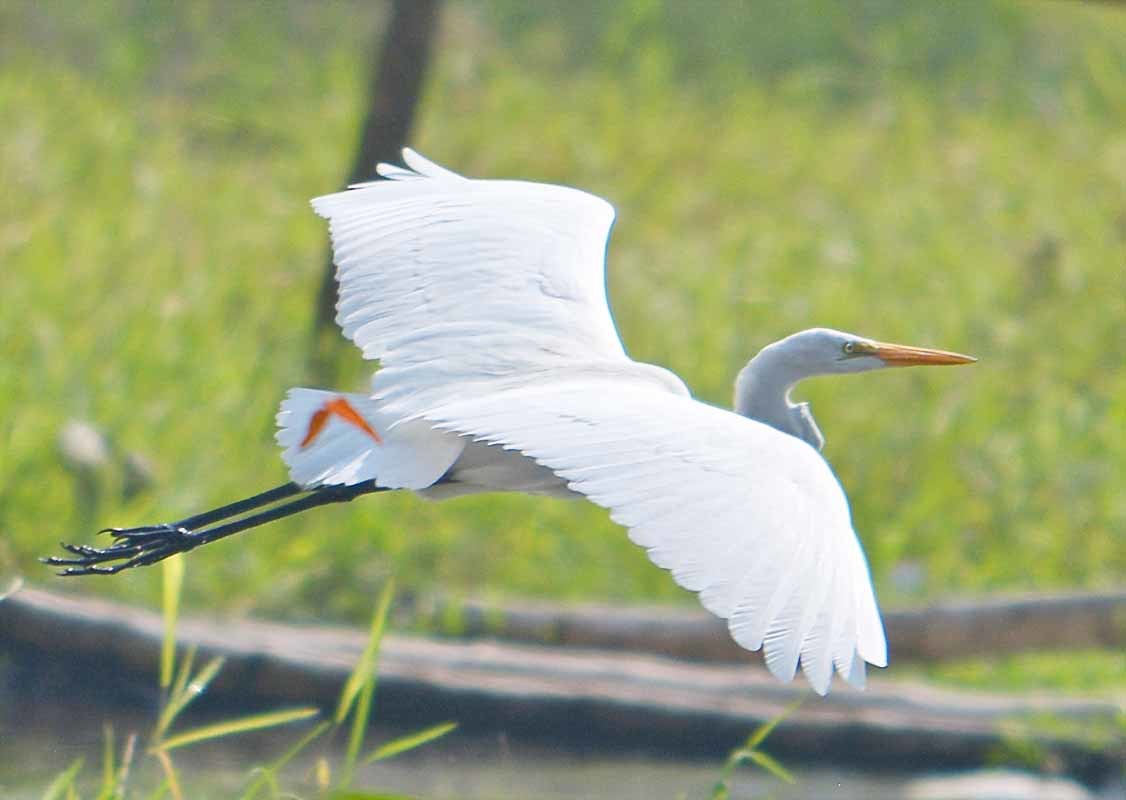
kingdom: Animalia
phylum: Chordata
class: Aves
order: Pelecaniformes
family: Ardeidae
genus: Ardea
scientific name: Ardea alba
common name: Great egret
